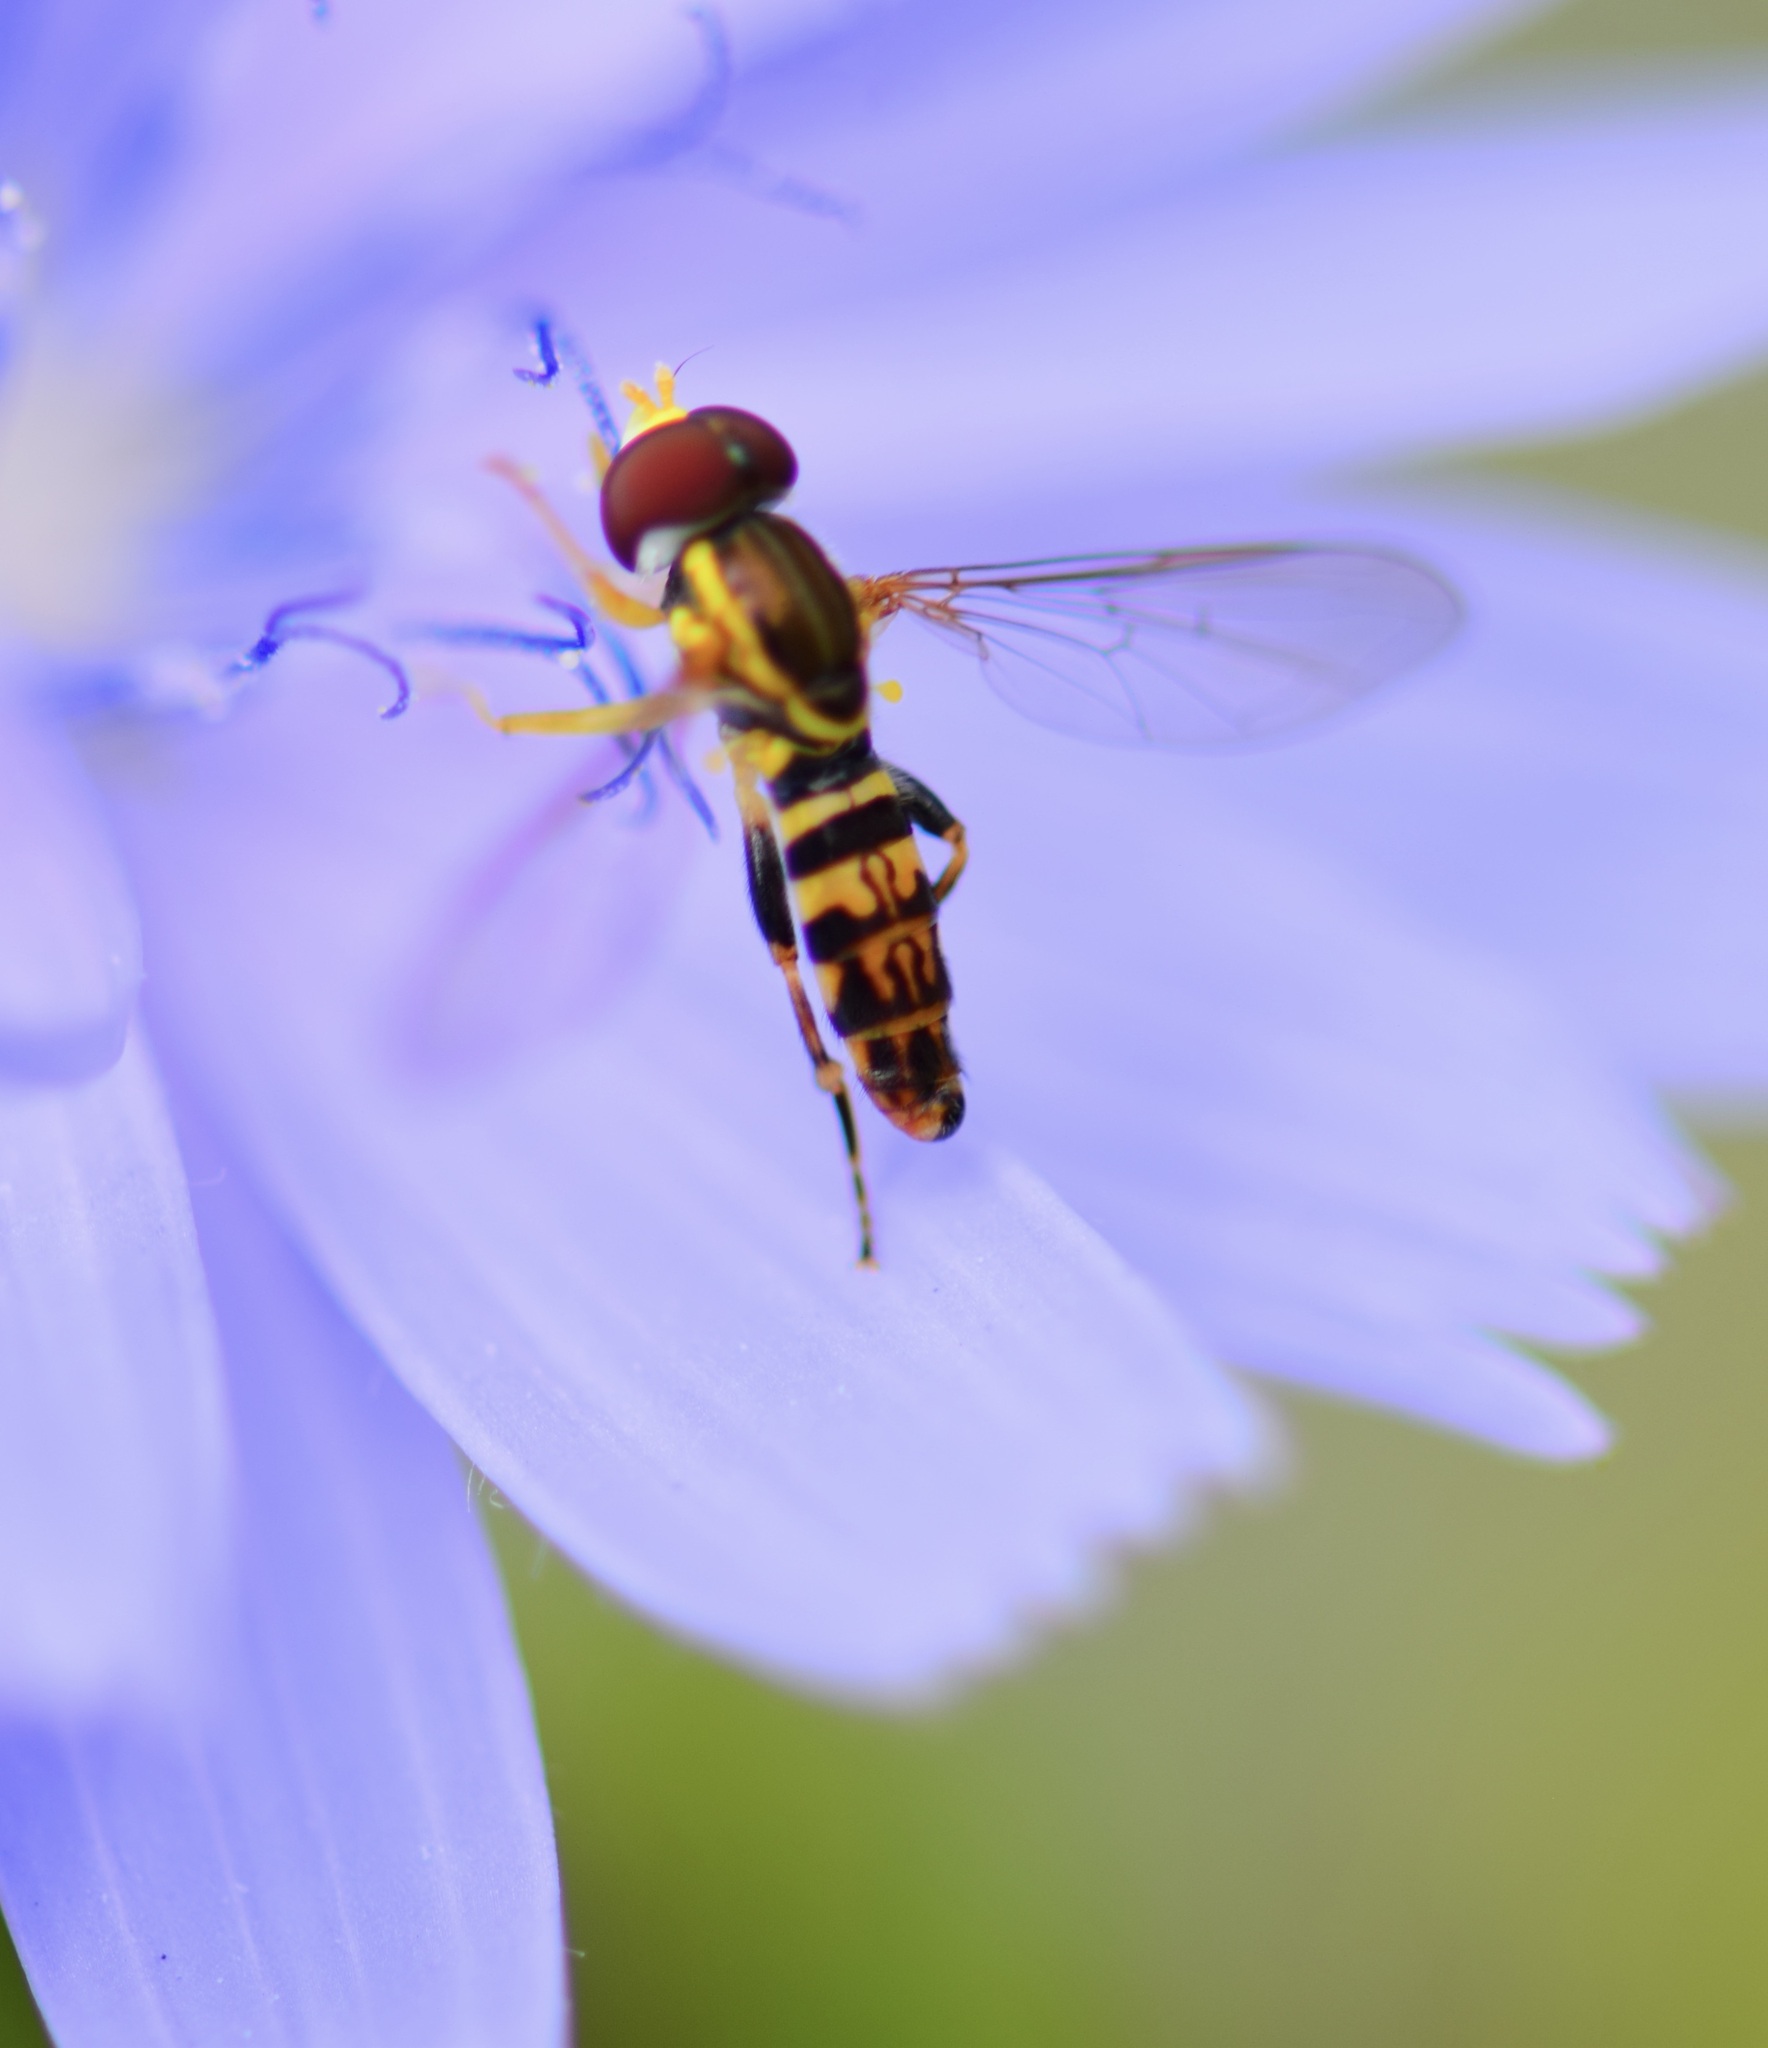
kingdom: Animalia
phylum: Arthropoda
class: Insecta
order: Diptera
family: Syrphidae
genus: Toxomerus
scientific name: Toxomerus geminatus
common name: Eastern calligrapher
